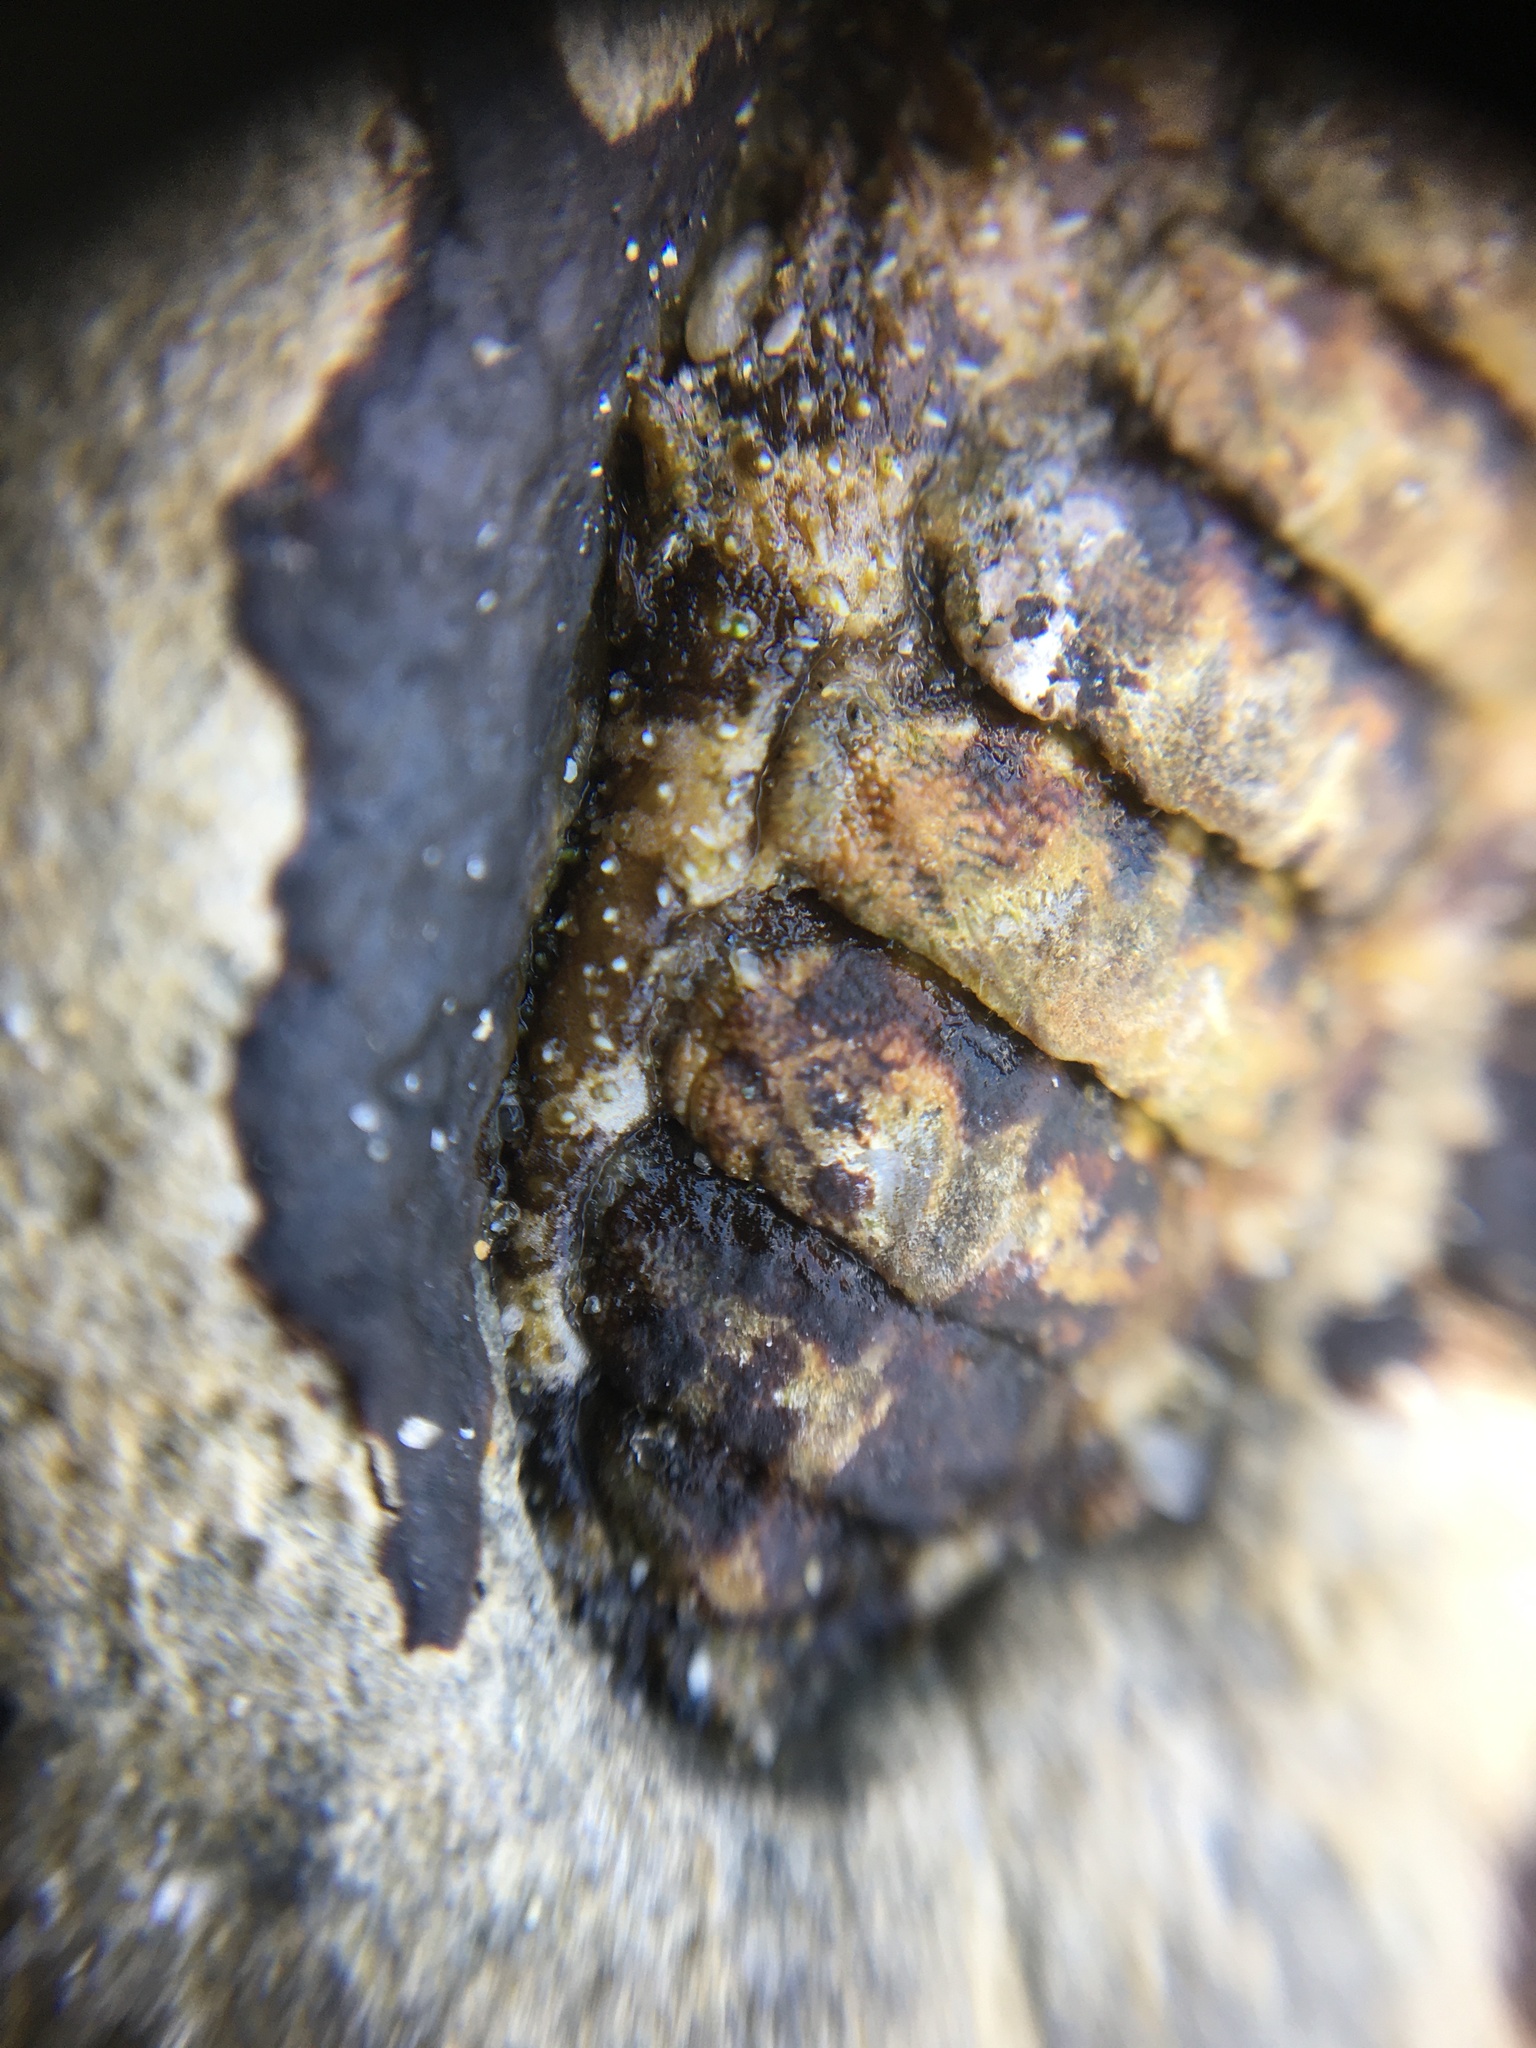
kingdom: Animalia
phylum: Mollusca
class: Polyplacophora
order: Chitonida
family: Tonicellidae
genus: Nuttallina
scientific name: Nuttallina californica
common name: California nuttall chiton
